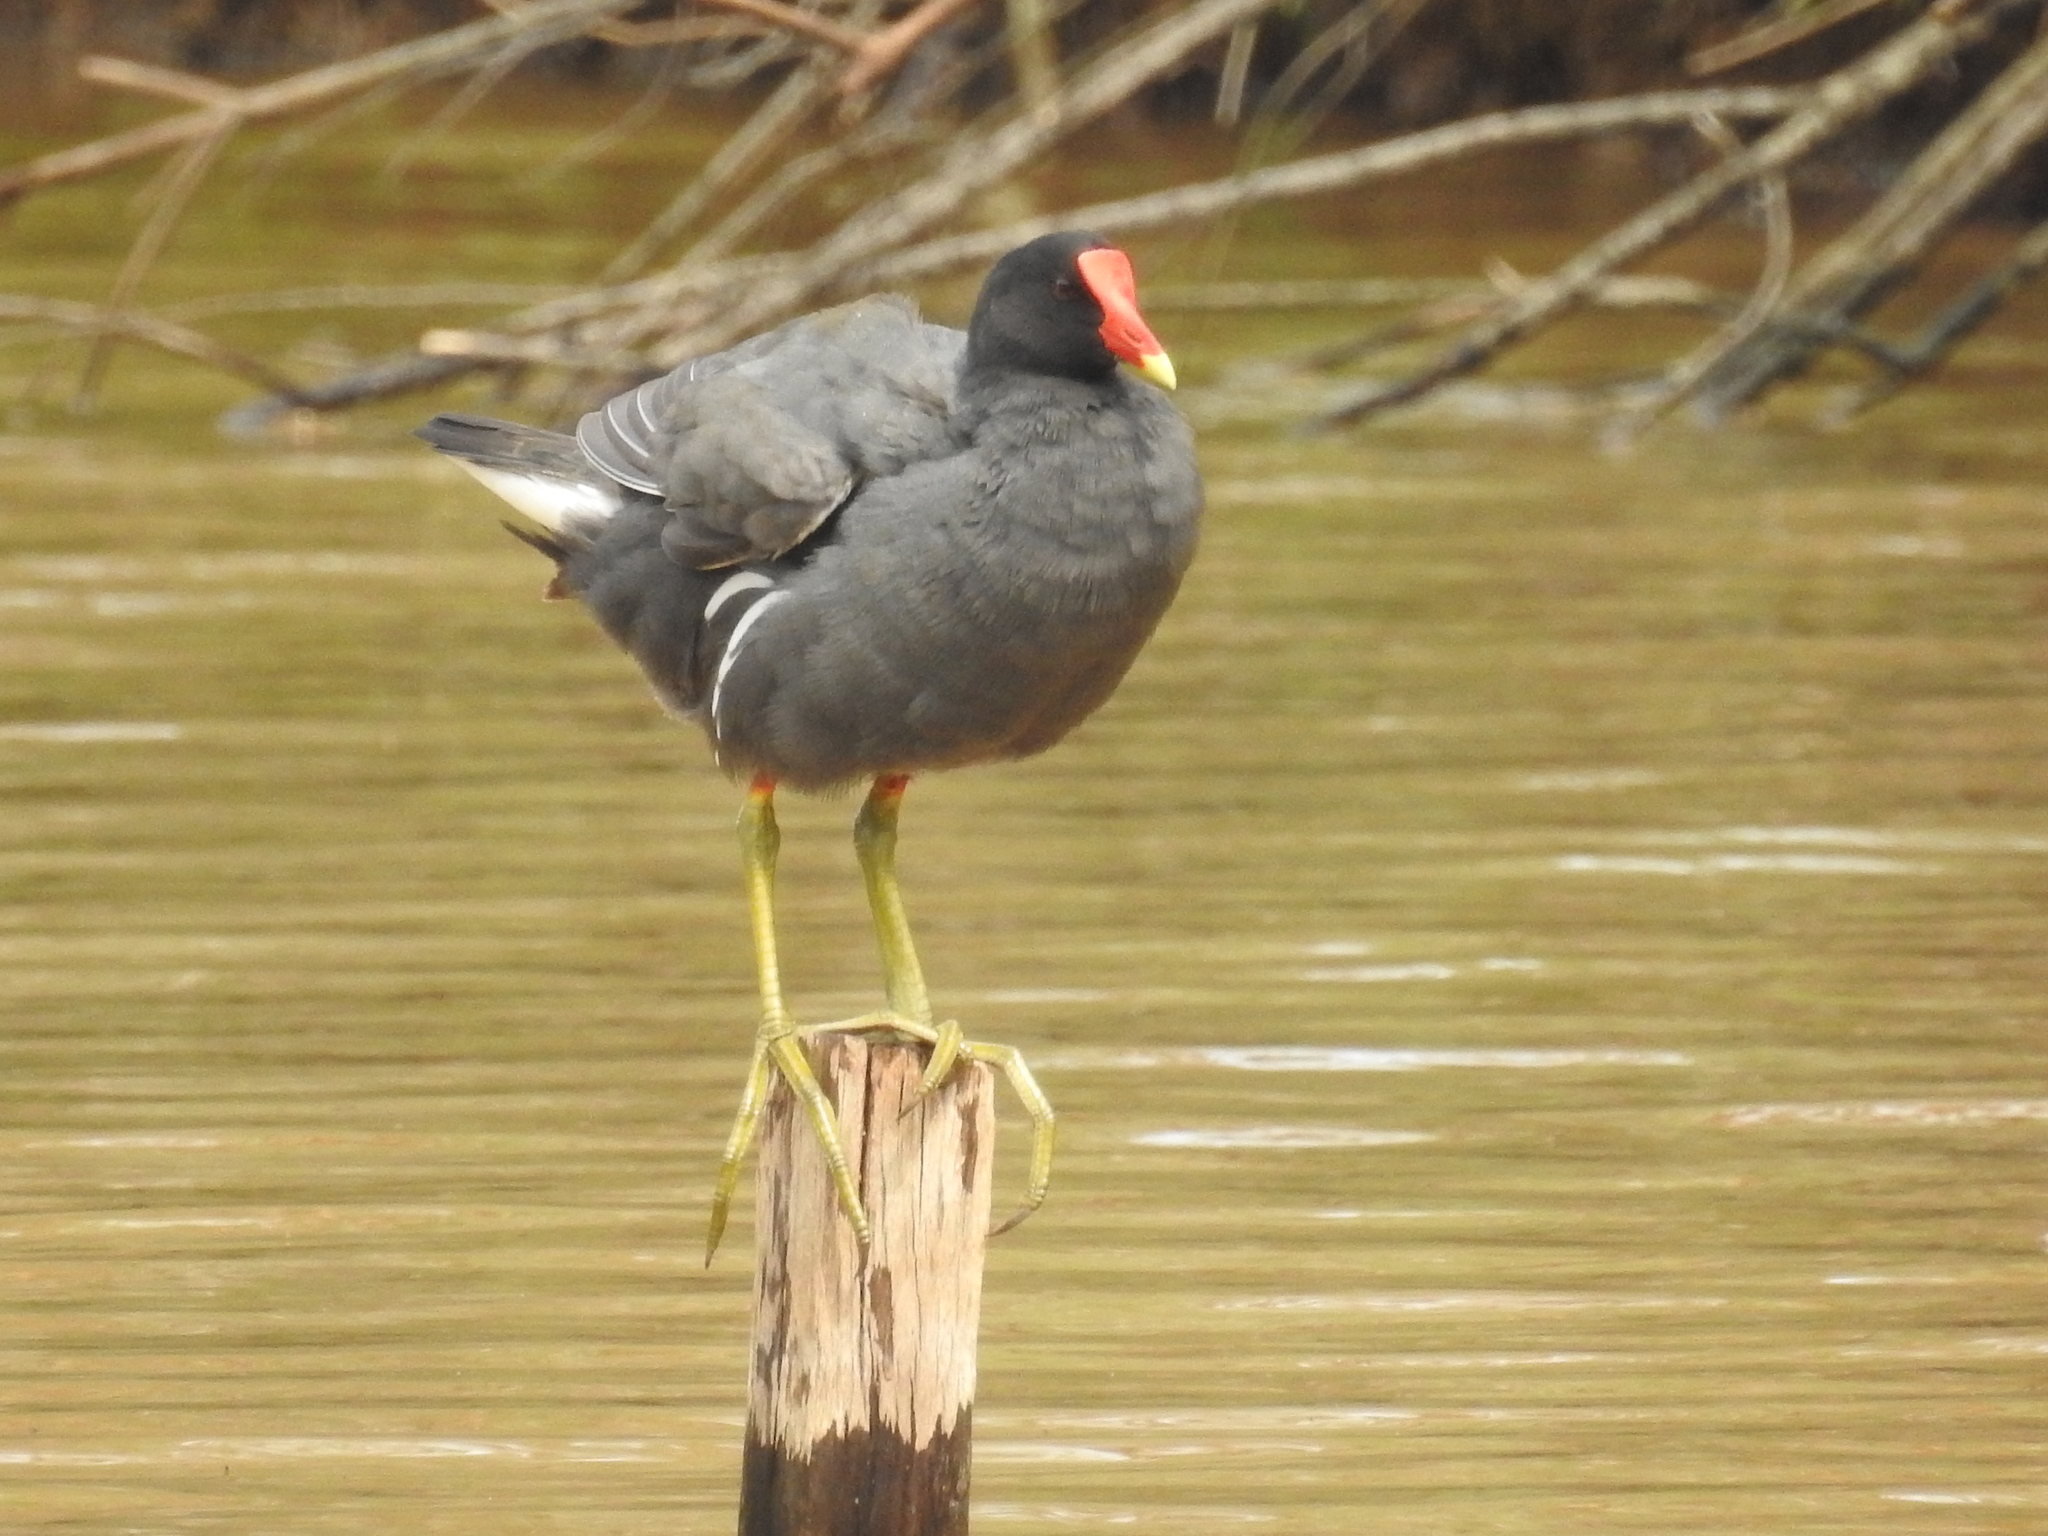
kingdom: Animalia
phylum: Chordata
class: Aves
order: Gruiformes
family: Rallidae
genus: Gallinula
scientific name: Gallinula chloropus
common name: Common moorhen
